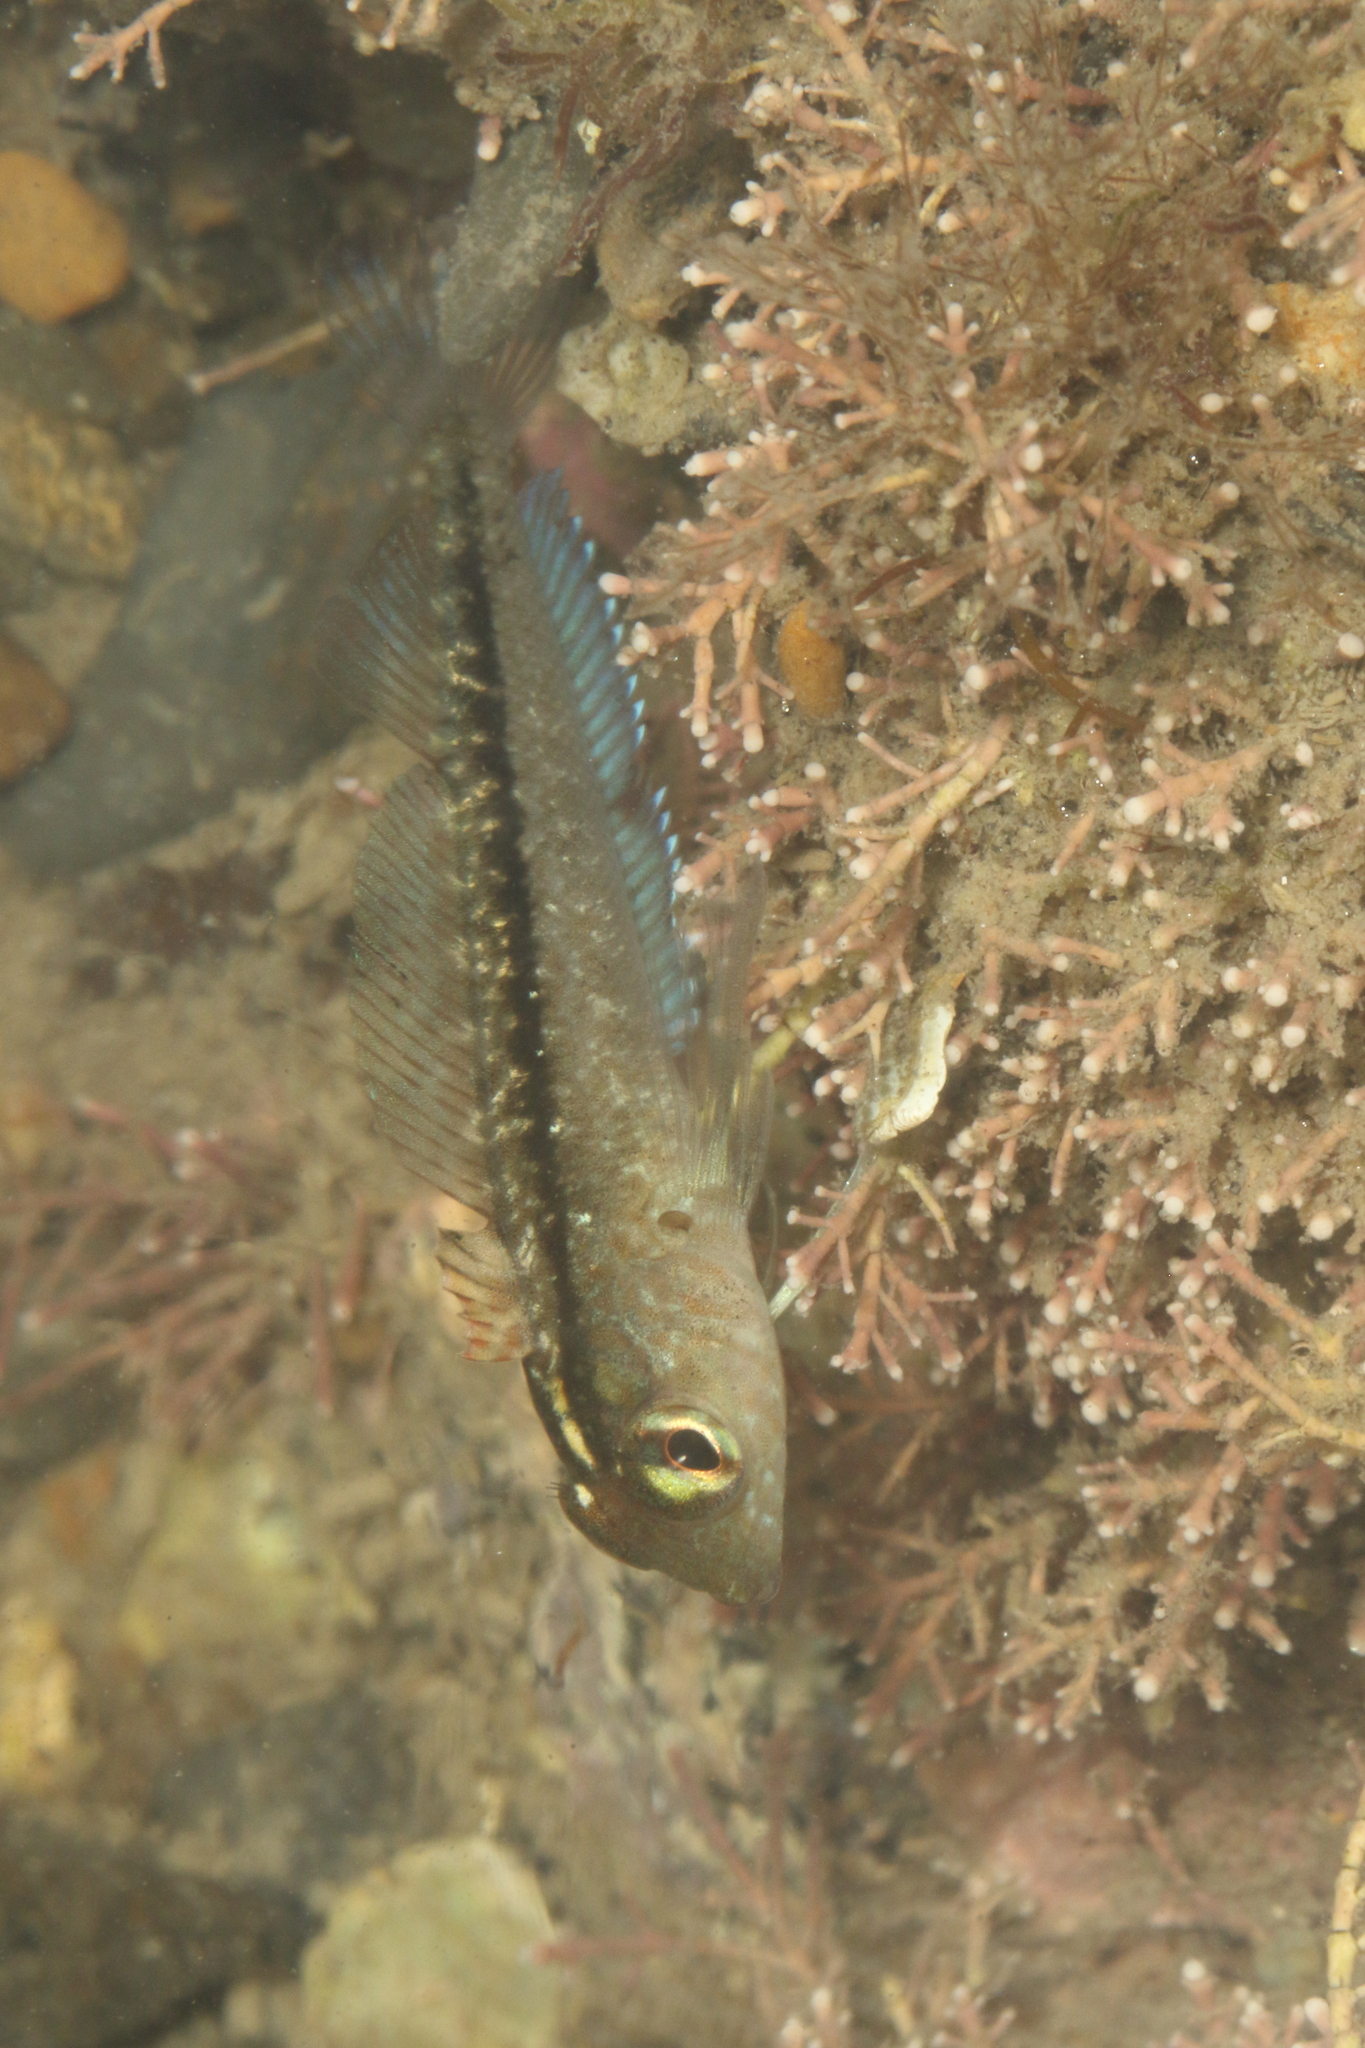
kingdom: Animalia
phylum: Chordata
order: Perciformes
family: Tripterygiidae
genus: Forsterygion
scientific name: Forsterygion lapillum
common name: Common triplefin
